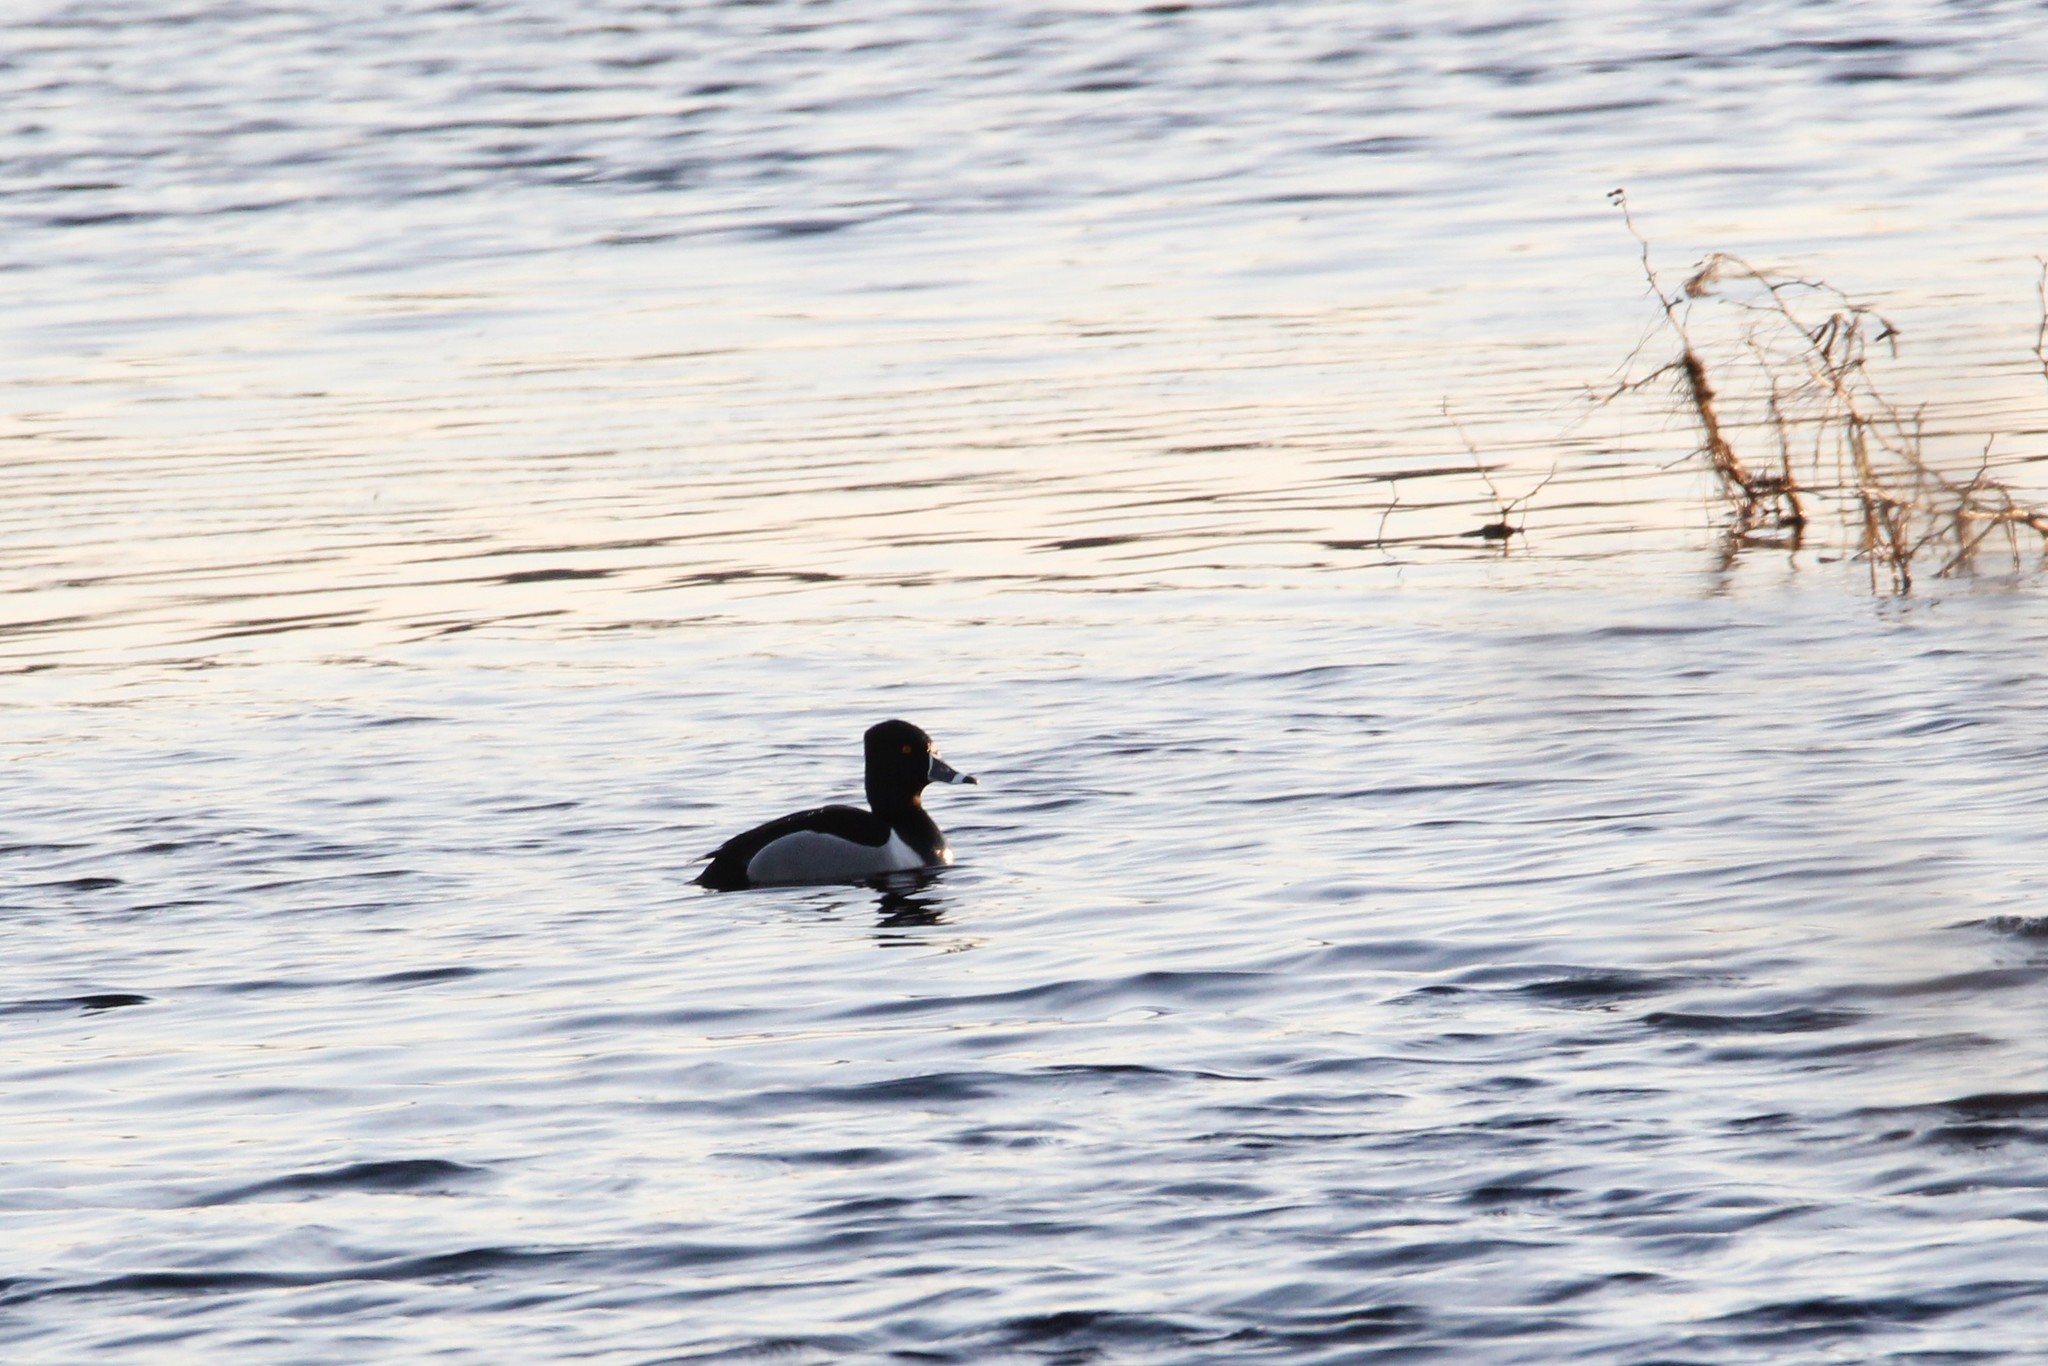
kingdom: Animalia
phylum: Chordata
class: Aves
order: Anseriformes
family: Anatidae
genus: Aythya
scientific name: Aythya collaris
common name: Ring-necked duck
